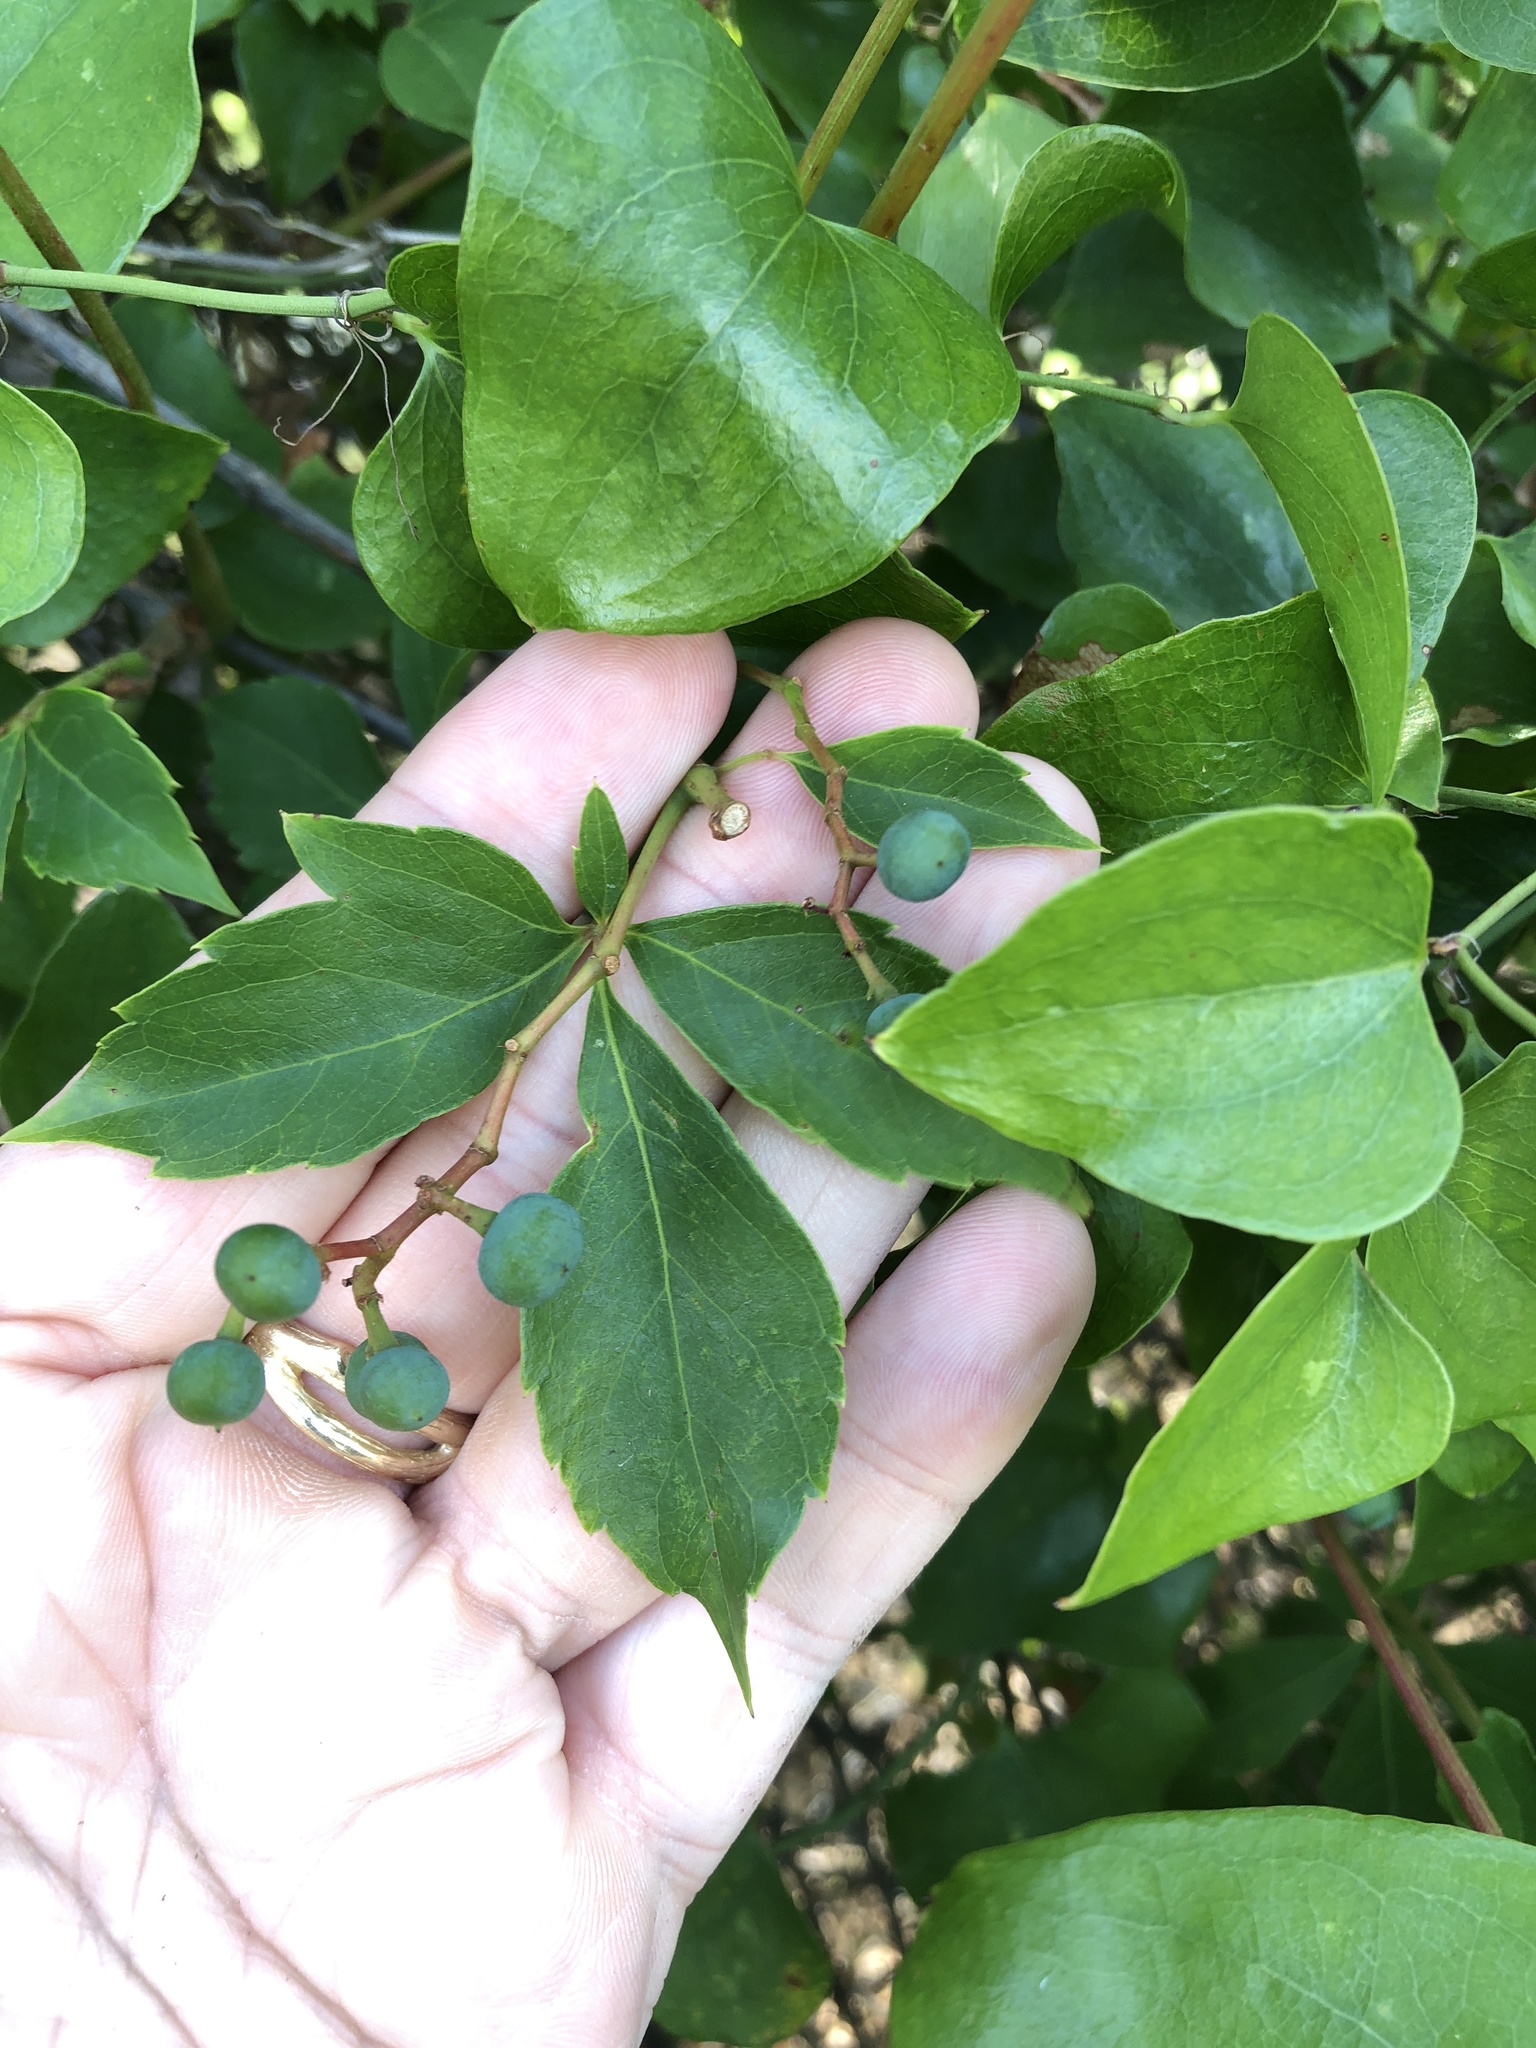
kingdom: Plantae
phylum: Tracheophyta
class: Magnoliopsida
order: Vitales
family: Vitaceae
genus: Parthenocissus
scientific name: Parthenocissus quinquefolia
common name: Virginia-creeper
